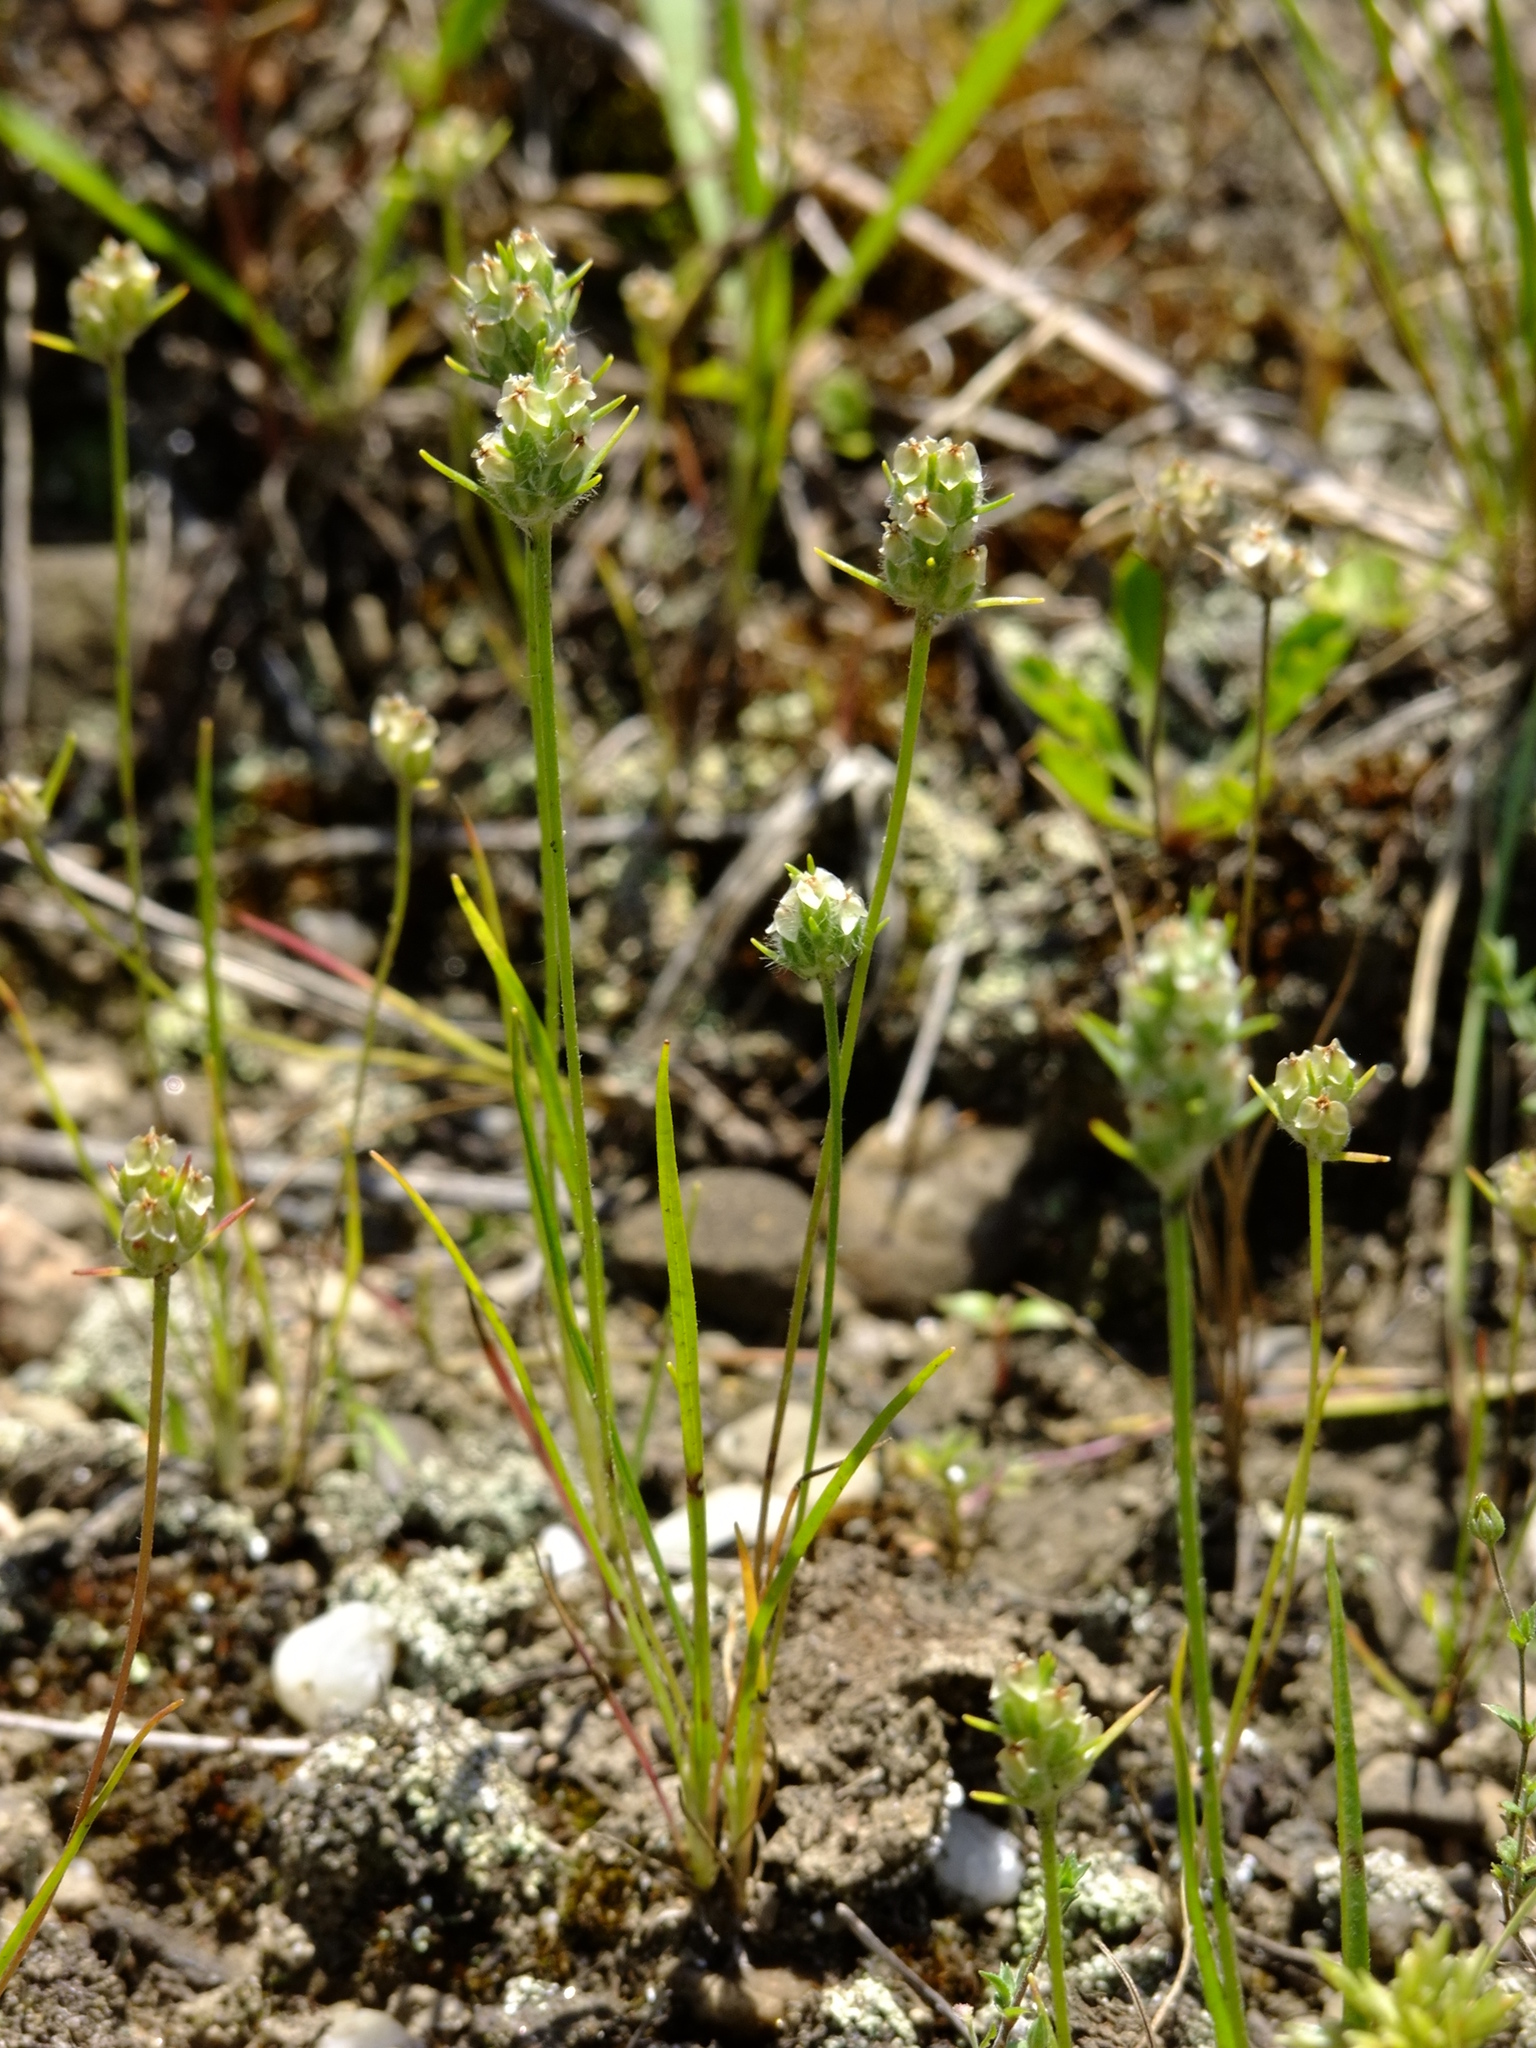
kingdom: Plantae
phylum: Tracheophyta
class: Magnoliopsida
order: Lamiales
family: Plantaginaceae
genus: Plantago
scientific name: Plantago aristata
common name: Bracted plantain
